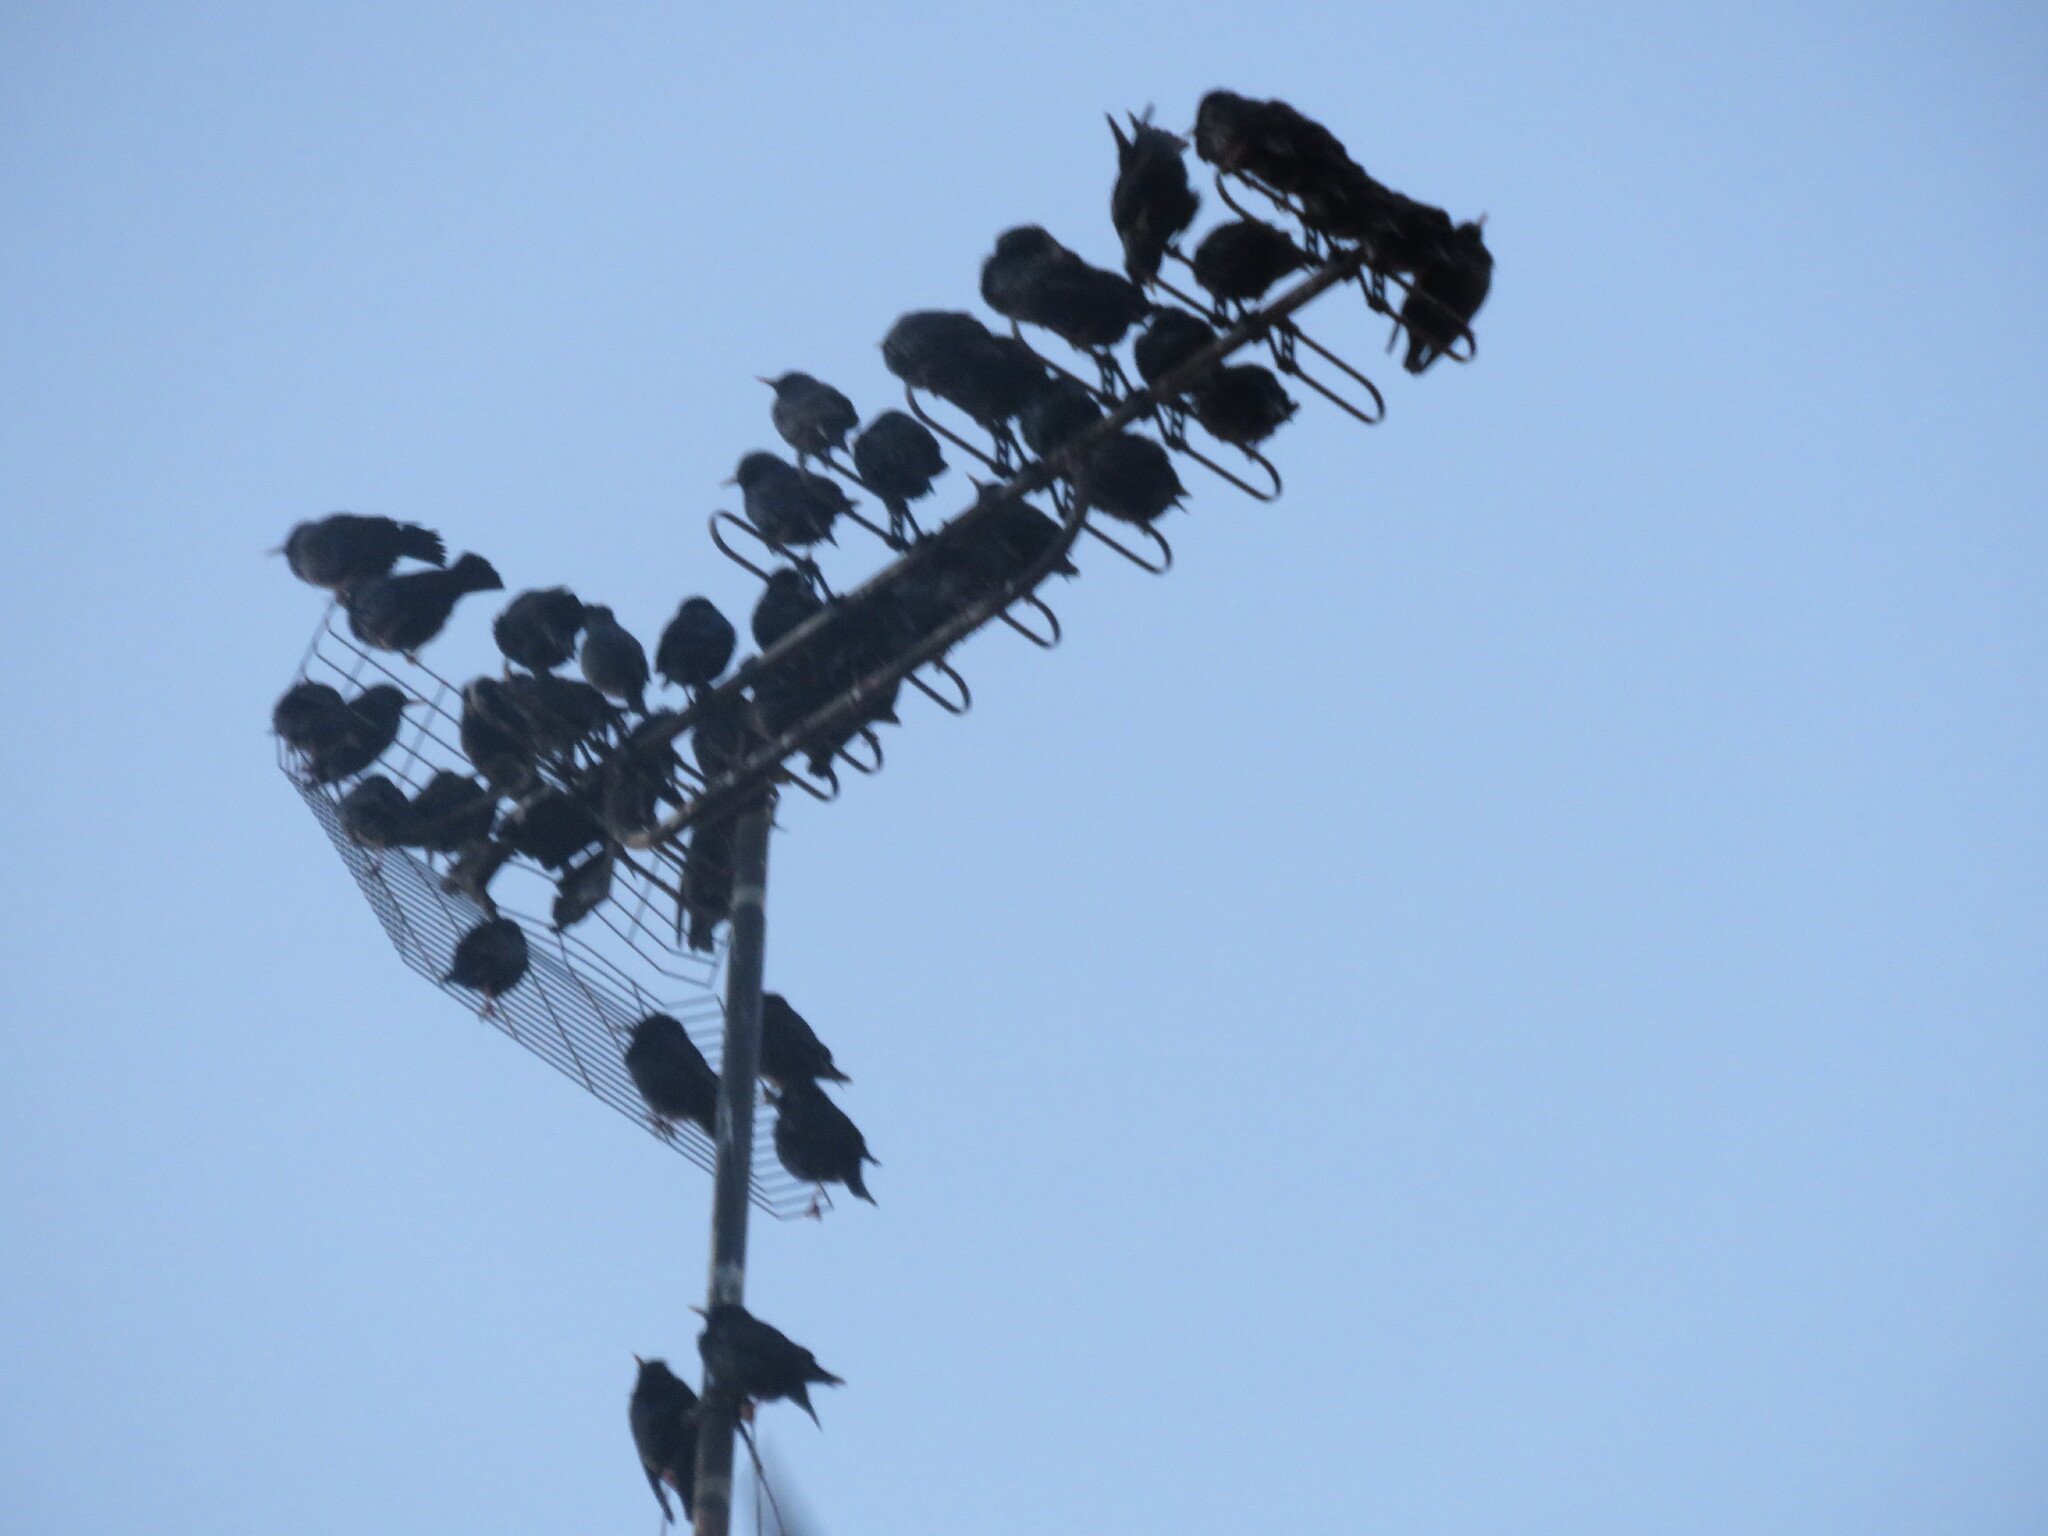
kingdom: Animalia
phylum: Chordata
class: Aves
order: Passeriformes
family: Sturnidae
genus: Sturnus
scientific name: Sturnus unicolor
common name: Spotless starling
